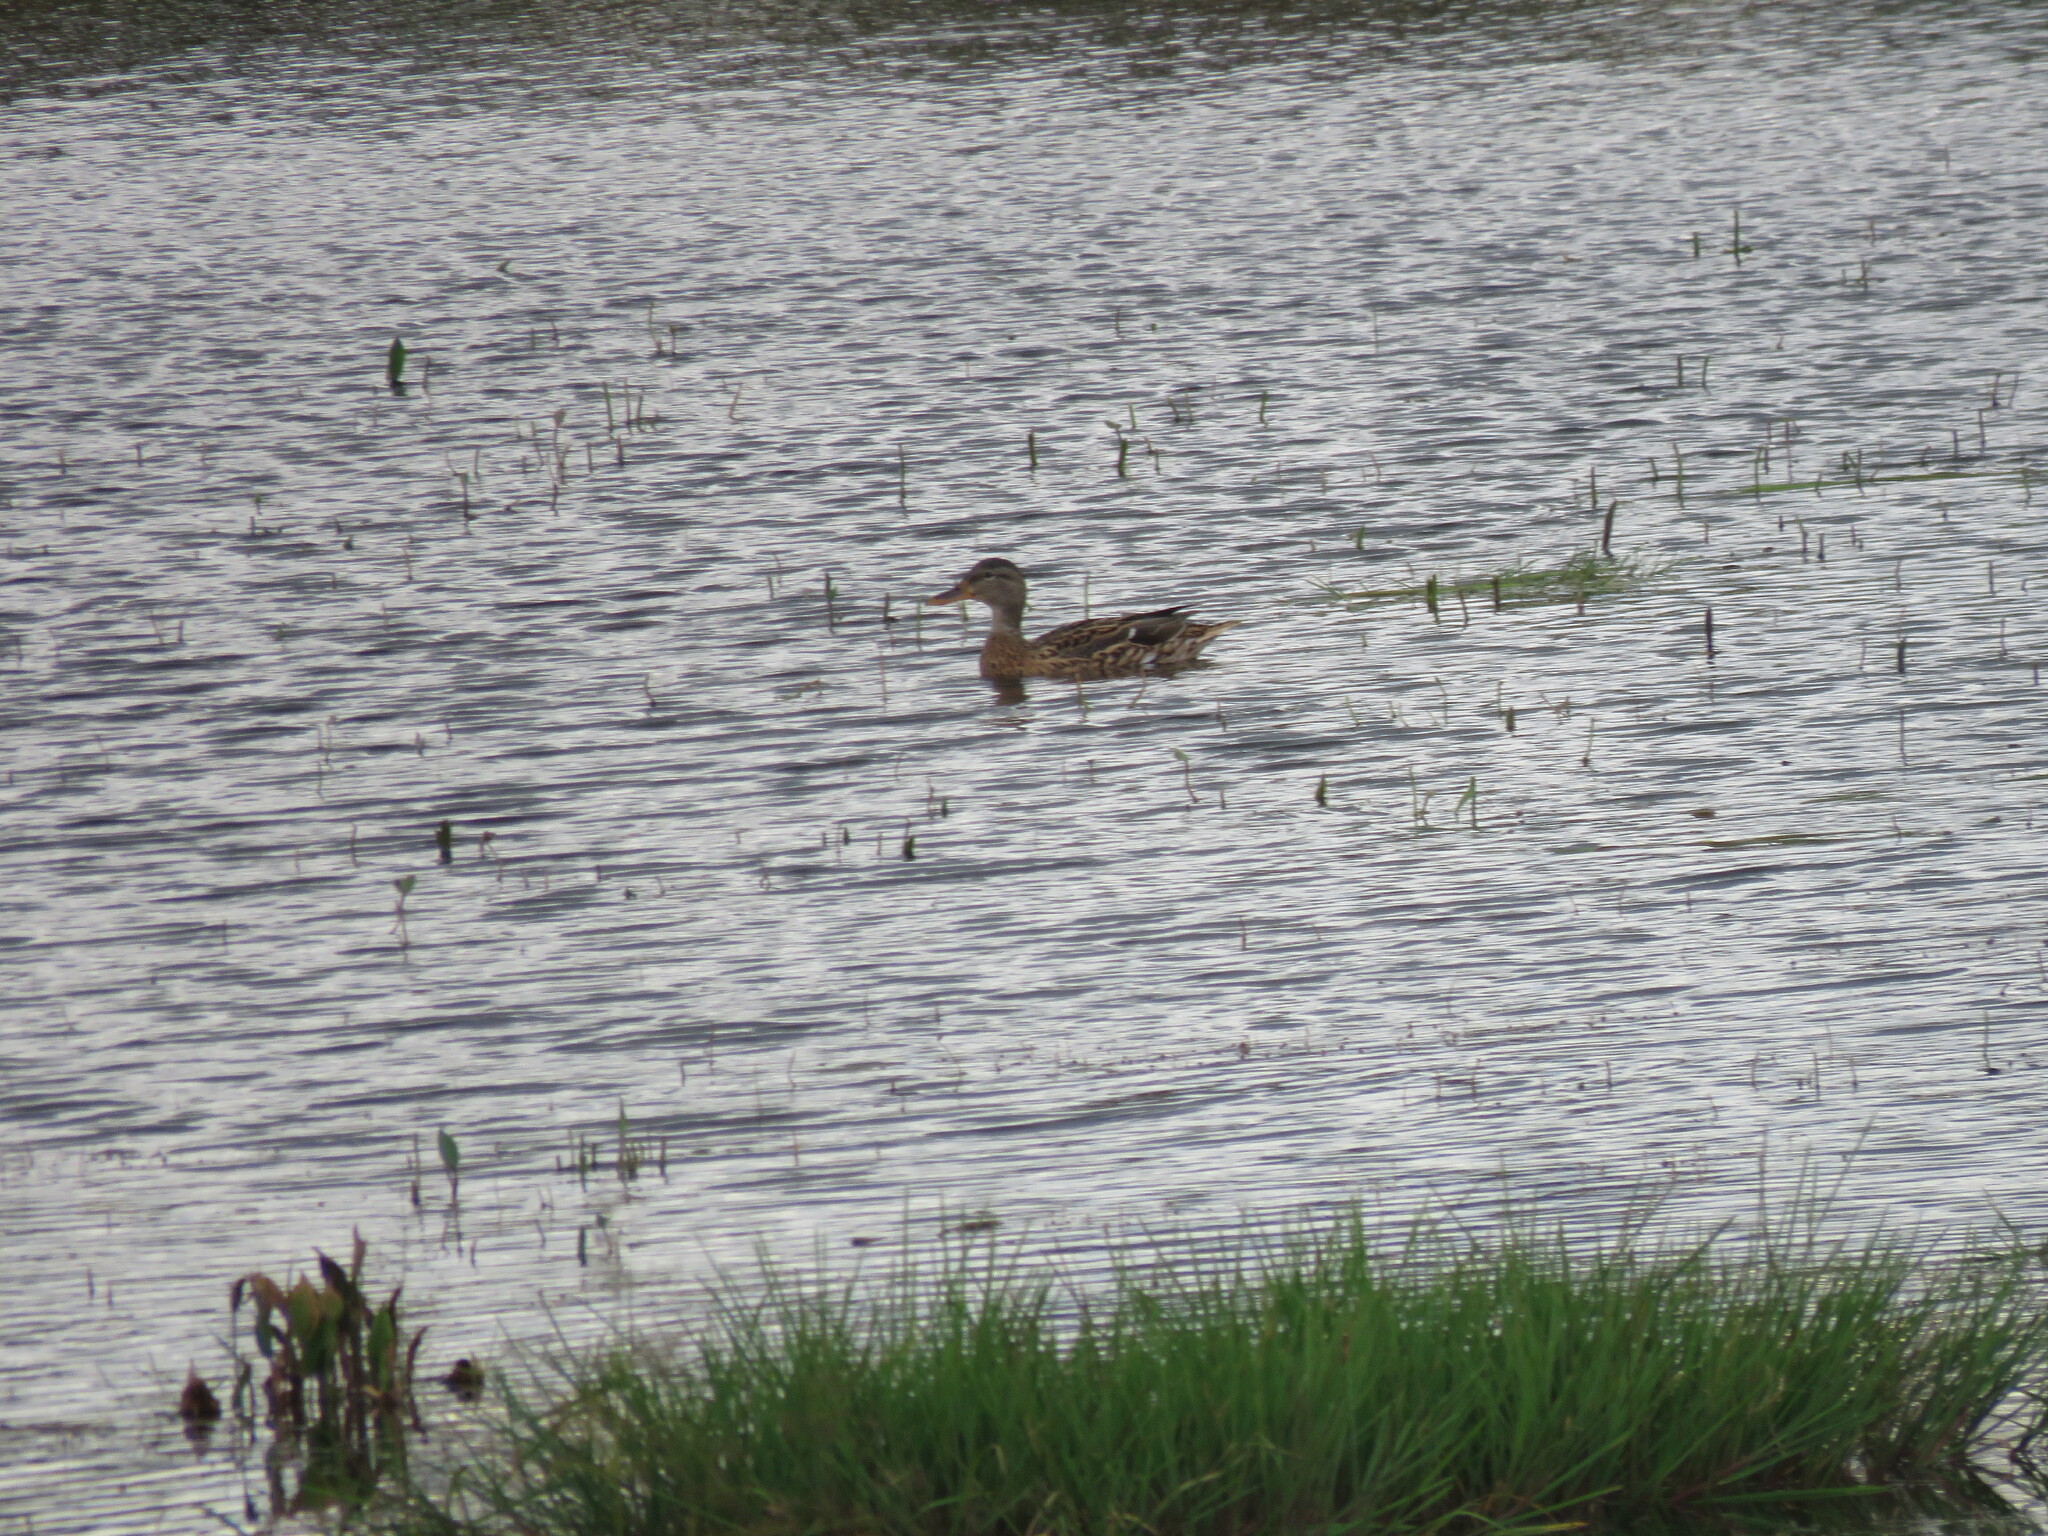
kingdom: Animalia
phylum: Chordata
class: Aves
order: Anseriformes
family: Anatidae
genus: Anas
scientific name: Anas platyrhynchos
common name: Mallard
